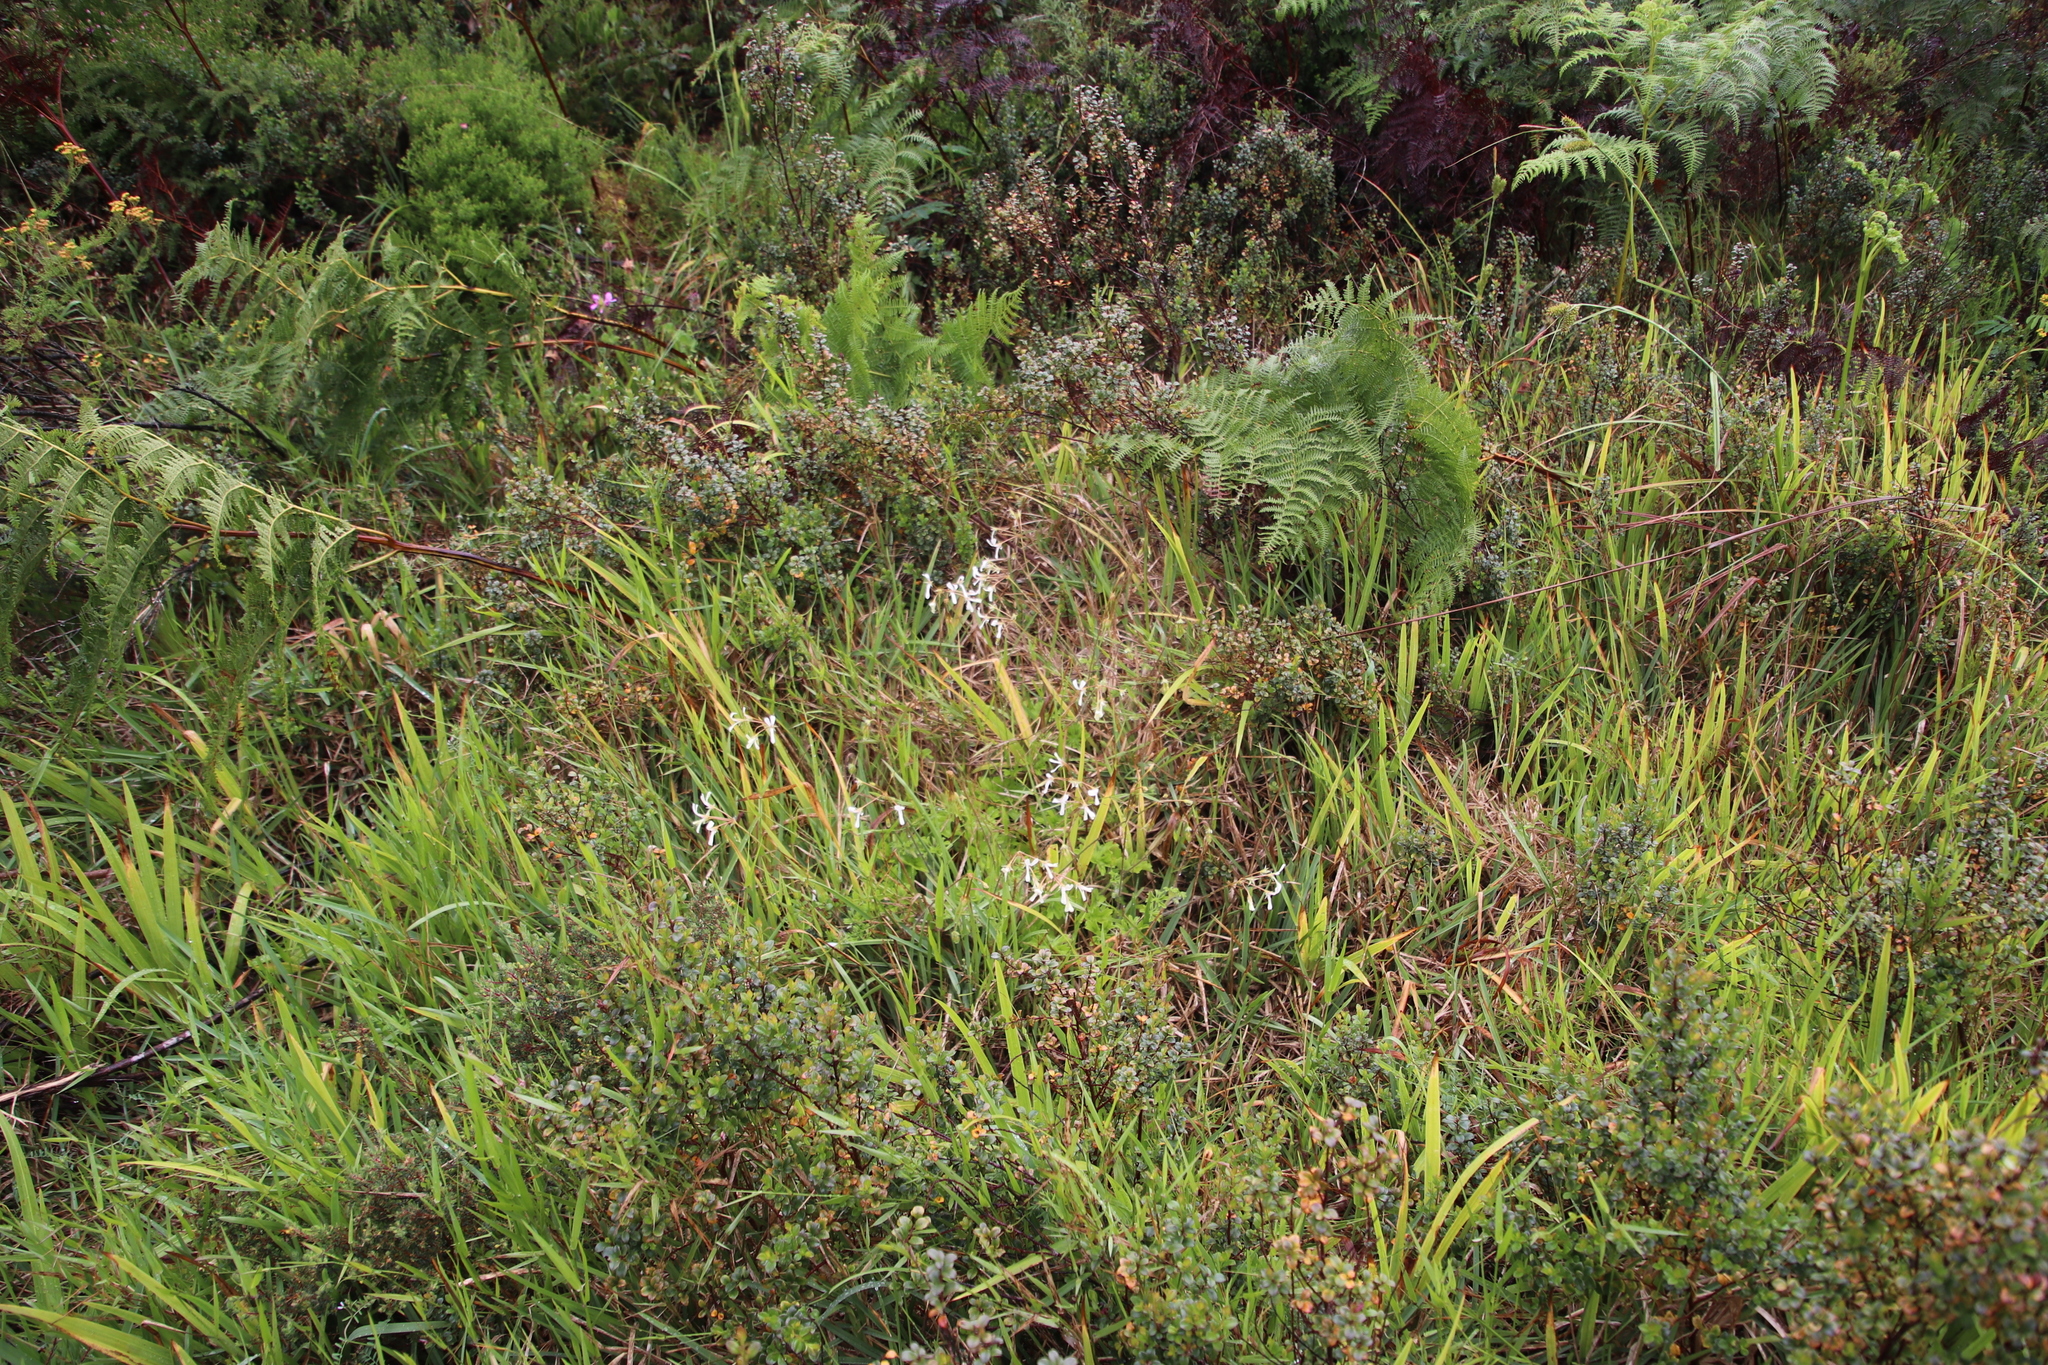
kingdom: Plantae
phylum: Tracheophyta
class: Magnoliopsida
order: Geraniales
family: Geraniaceae
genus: Pelargonium
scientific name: Pelargonium alchemilloides
